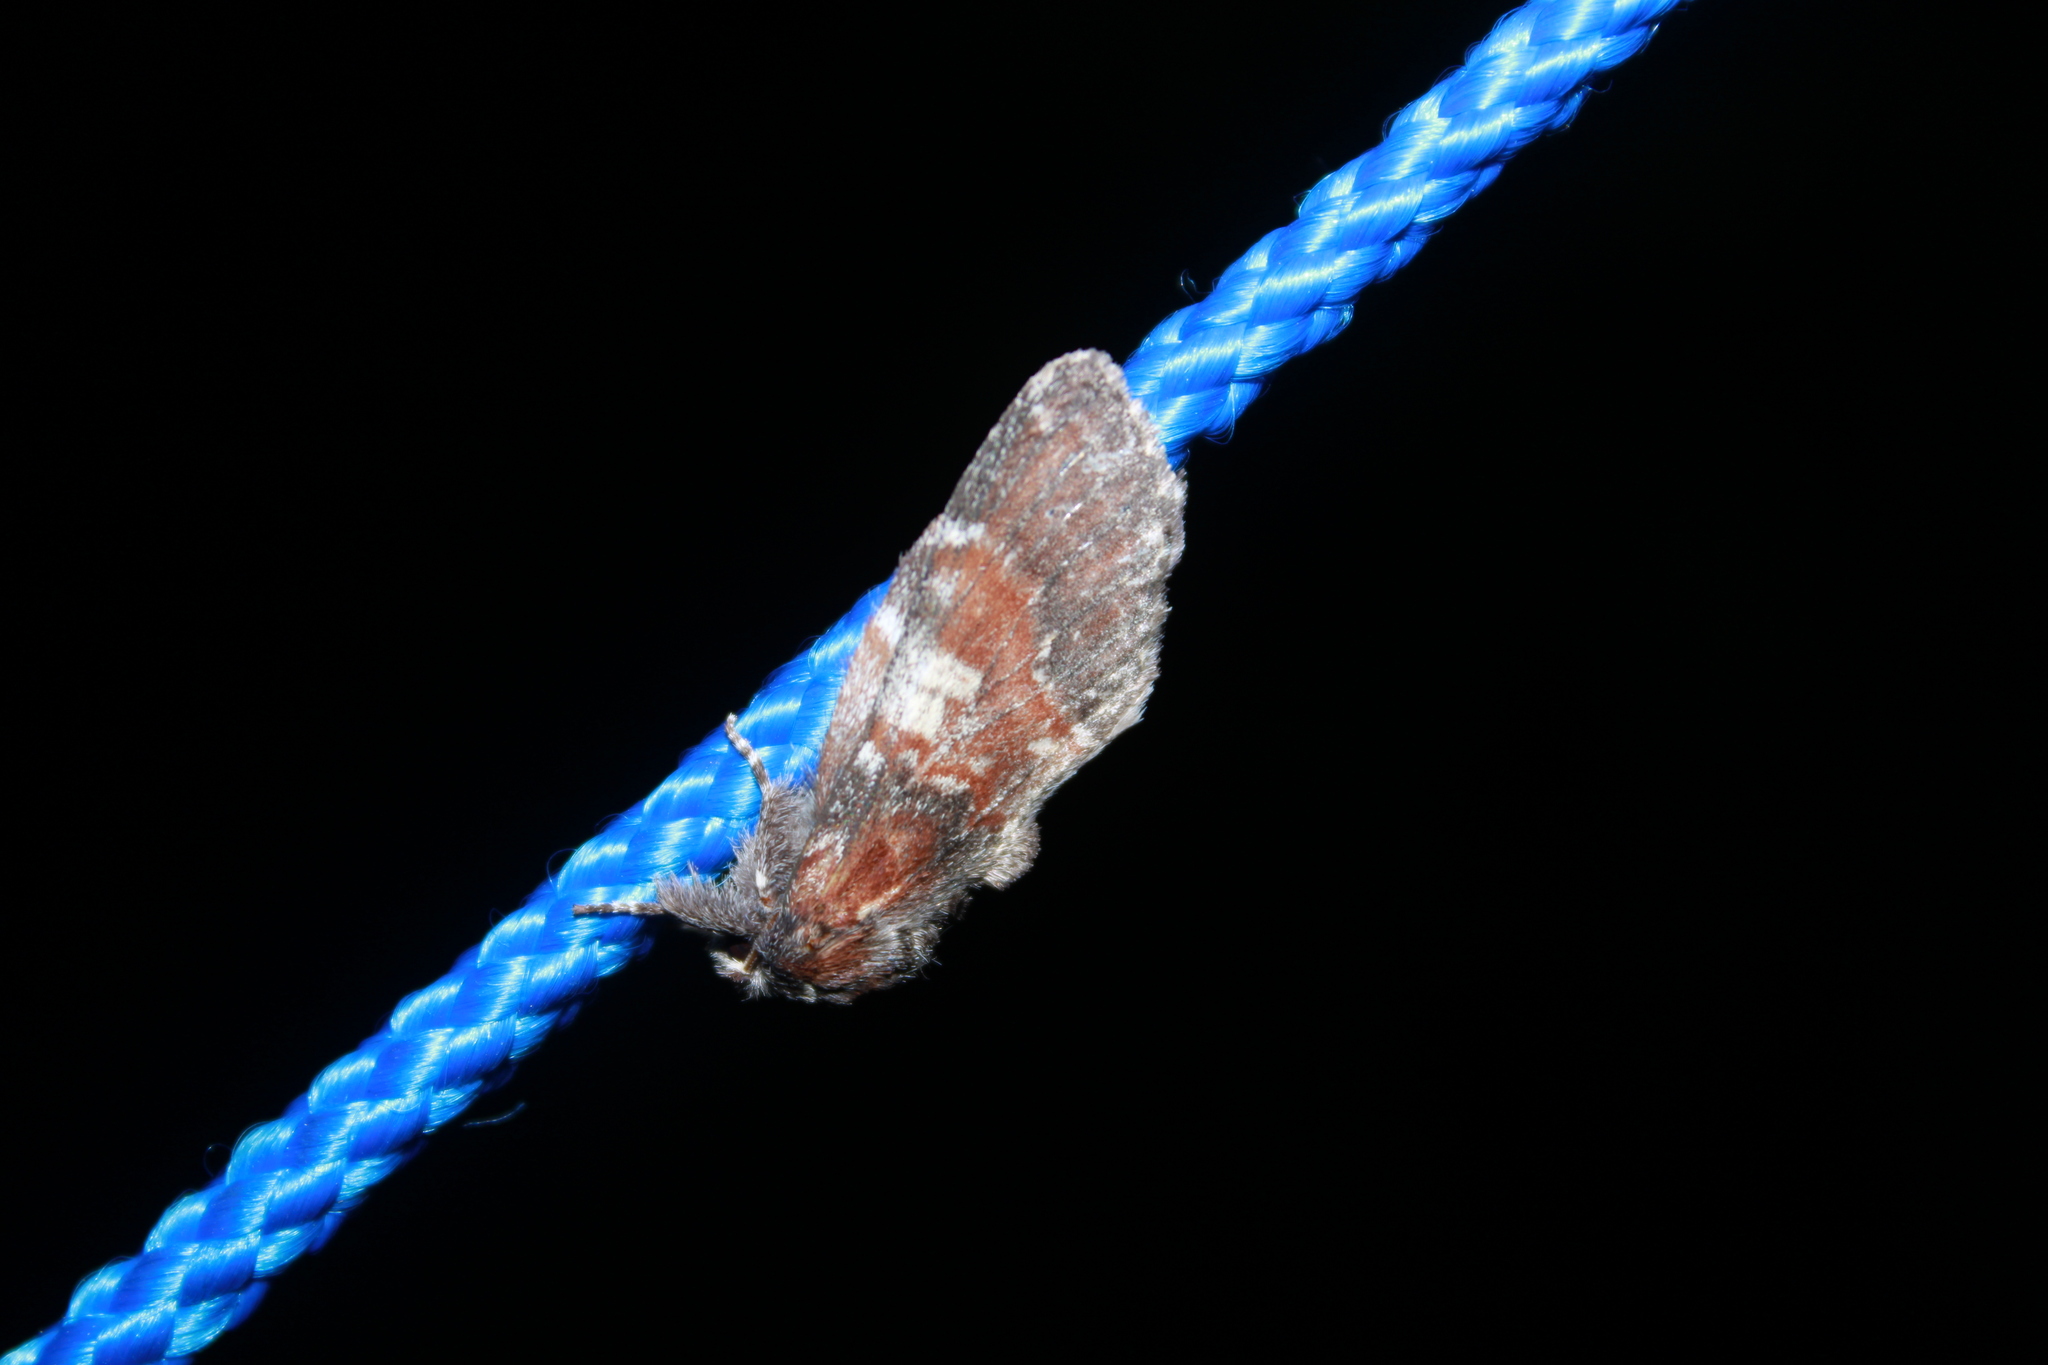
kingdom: Animalia
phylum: Arthropoda
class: Insecta
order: Lepidoptera
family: Notodontidae
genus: Peridea
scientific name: Peridea ferruginea
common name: Chocolate prominent
